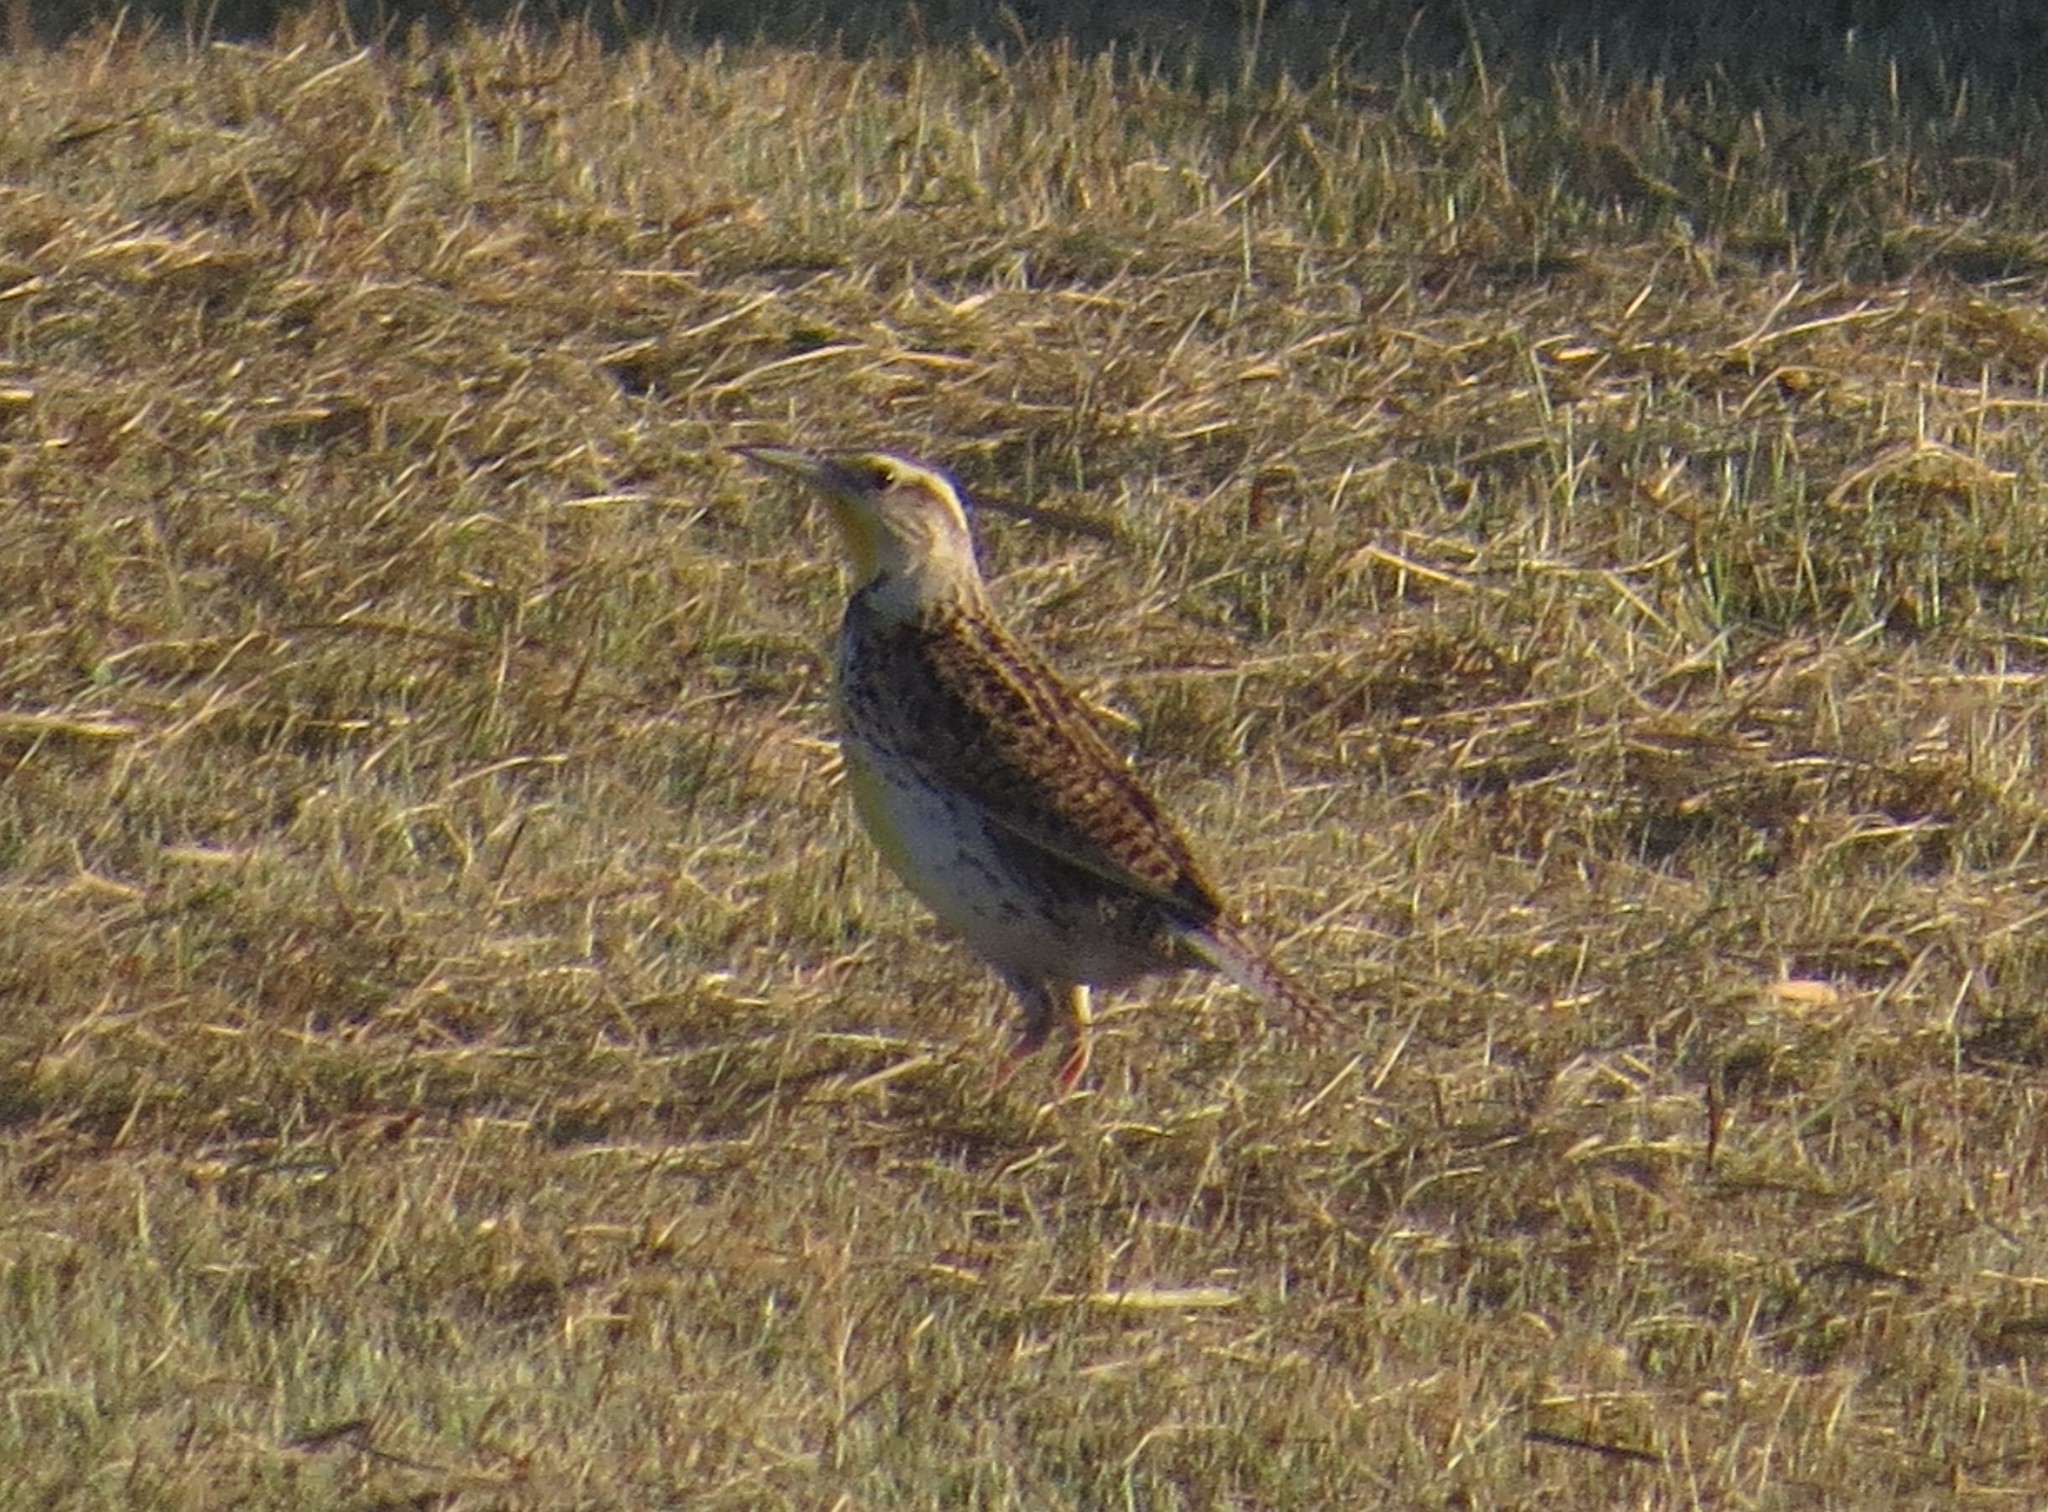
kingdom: Animalia
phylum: Chordata
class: Aves
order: Passeriformes
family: Icteridae
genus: Sturnella
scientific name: Sturnella neglecta
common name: Western meadowlark
